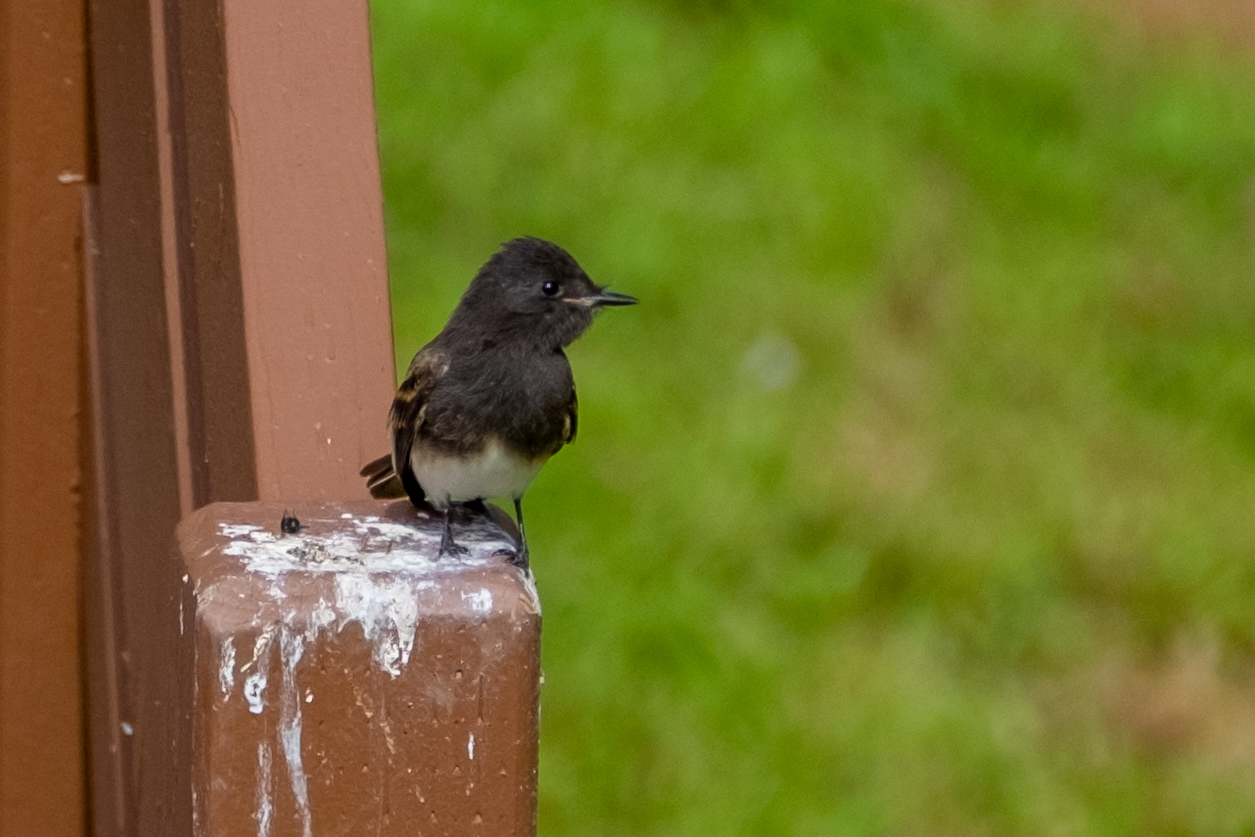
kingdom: Animalia
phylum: Chordata
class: Aves
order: Passeriformes
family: Tyrannidae
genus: Sayornis
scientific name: Sayornis nigricans
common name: Black phoebe
